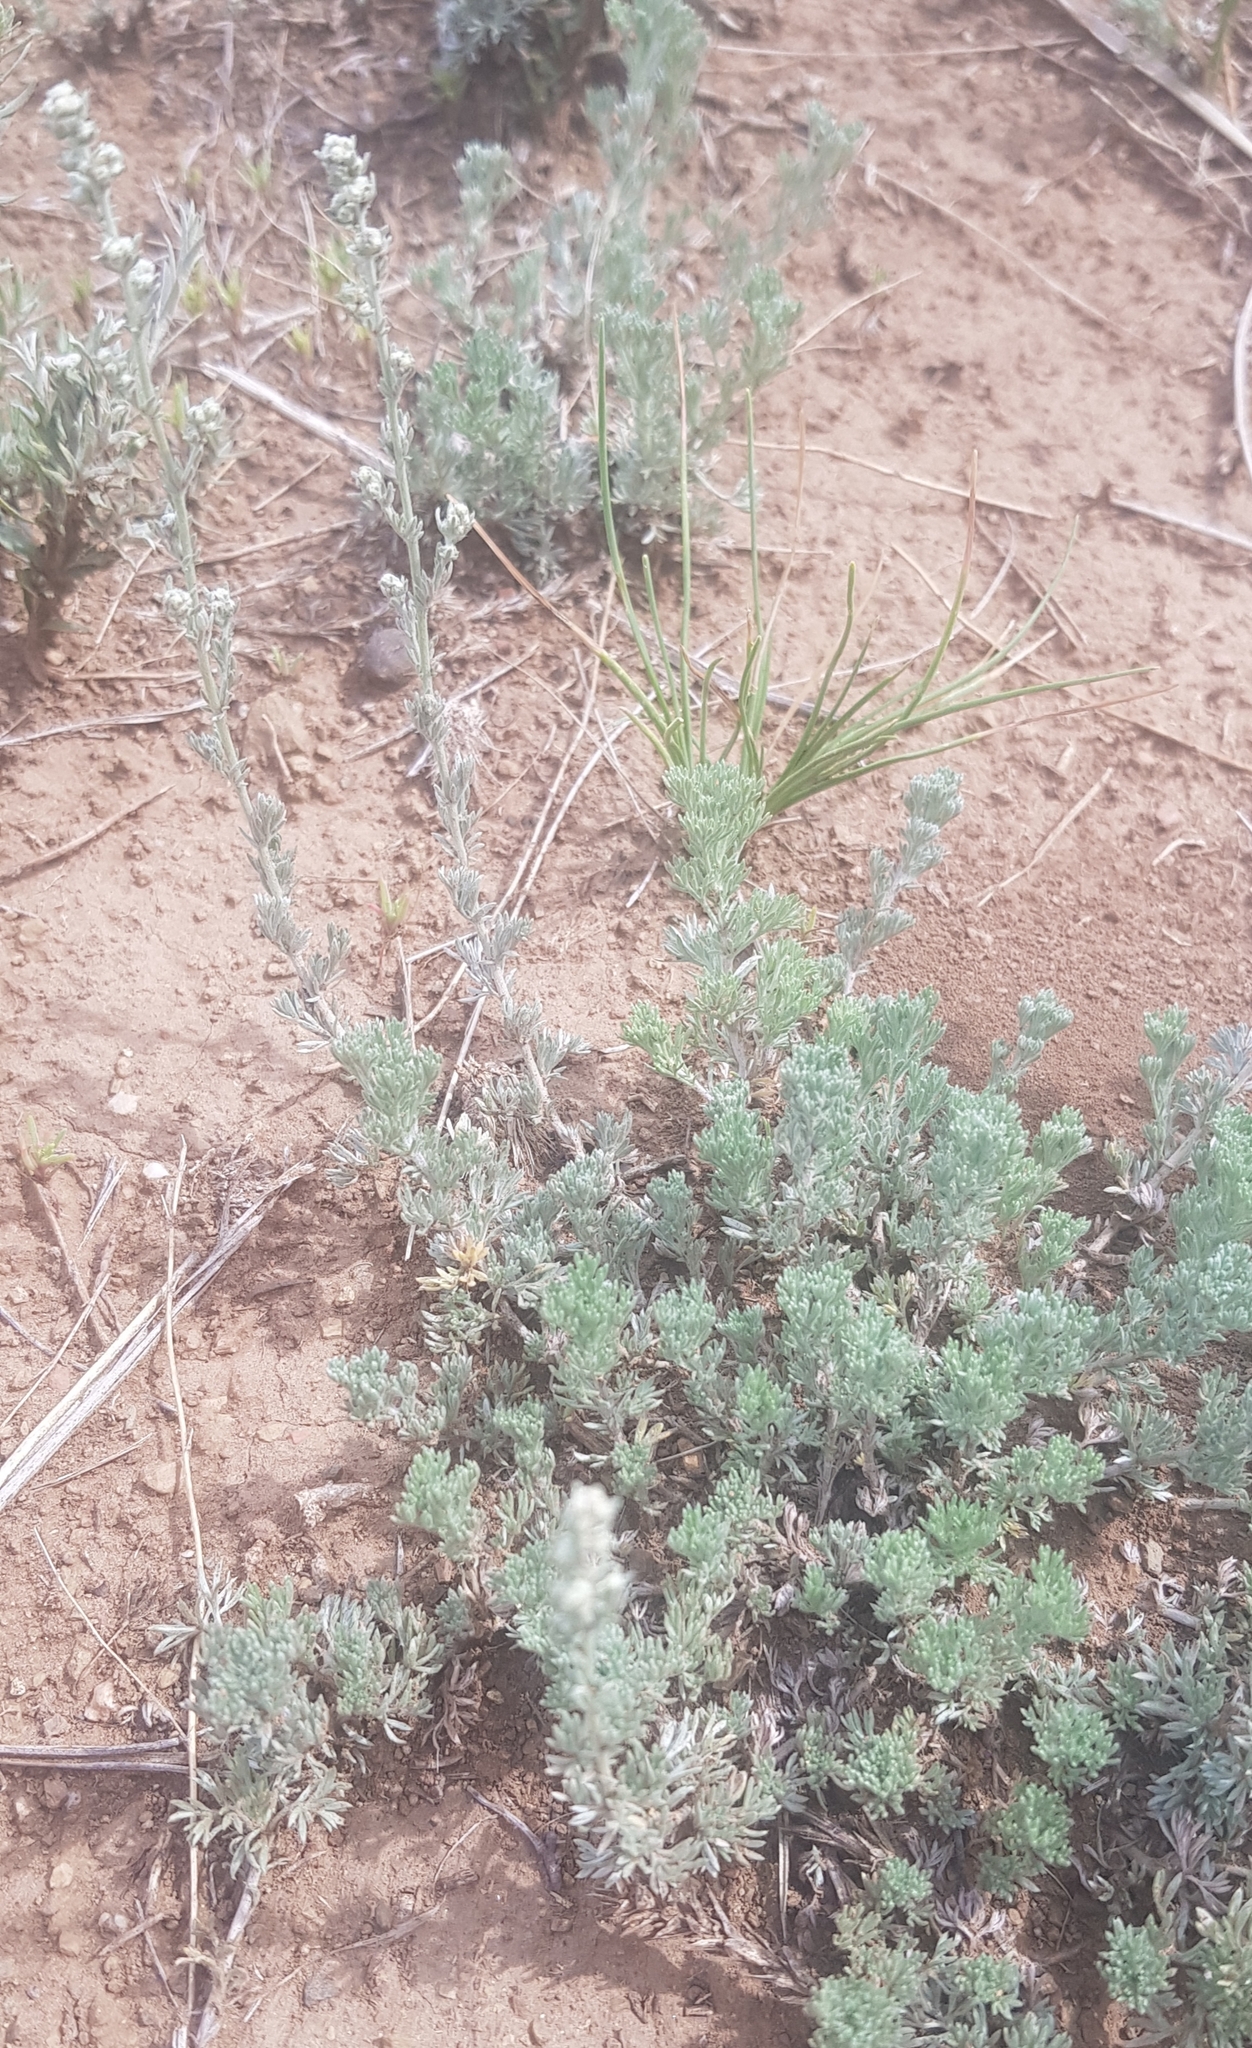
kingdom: Plantae
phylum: Tracheophyta
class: Magnoliopsida
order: Asterales
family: Asteraceae
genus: Artemisia
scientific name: Artemisia frigida
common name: Prairie sagewort
